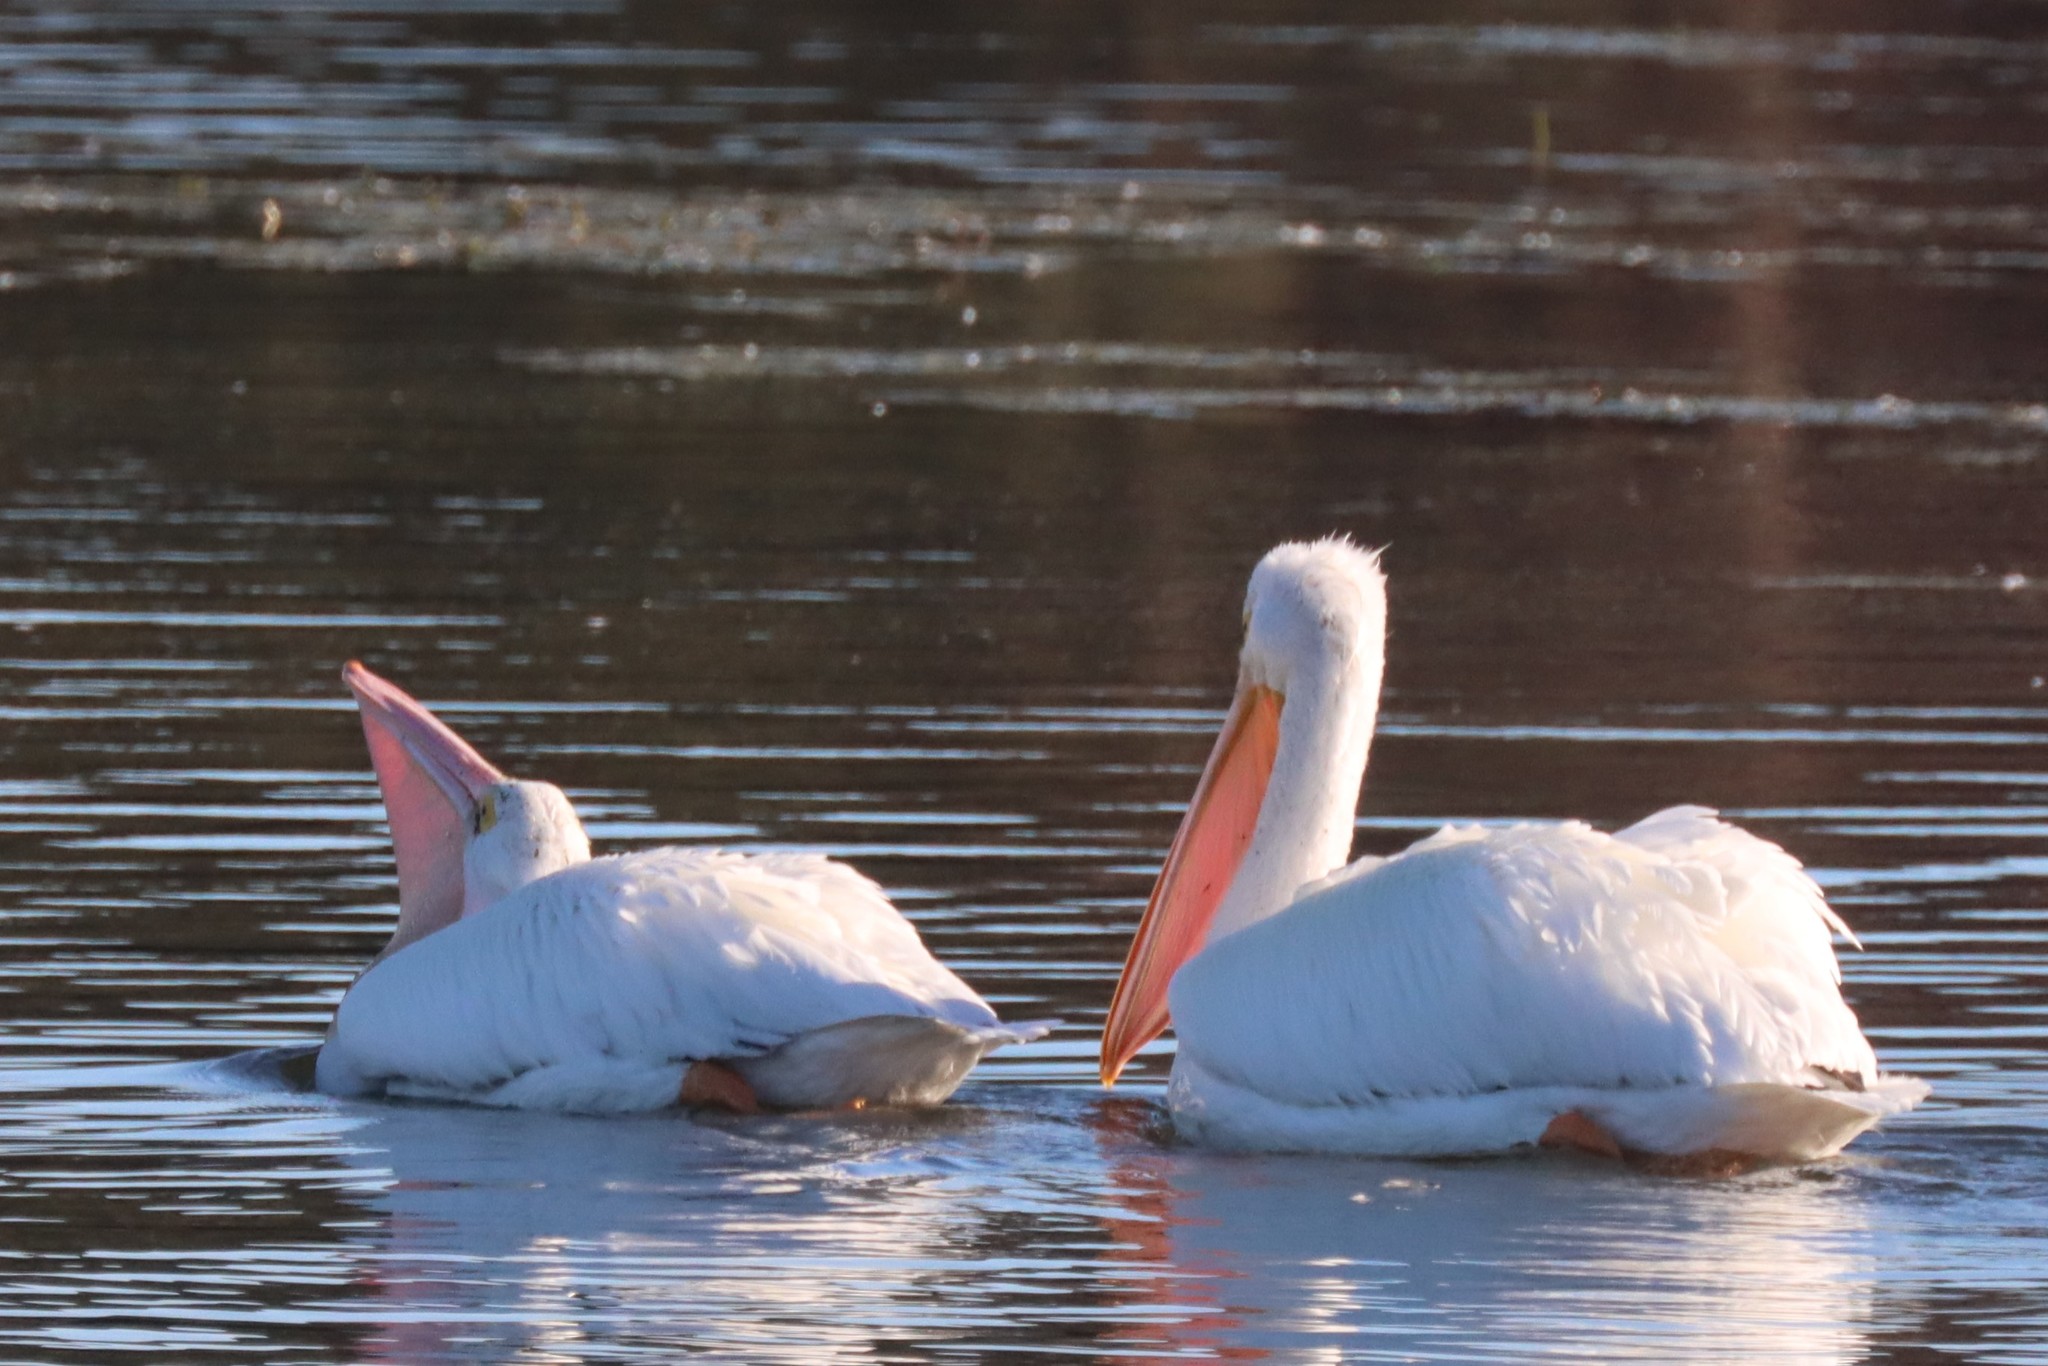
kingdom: Animalia
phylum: Chordata
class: Aves
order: Pelecaniformes
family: Pelecanidae
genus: Pelecanus
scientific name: Pelecanus erythrorhynchos
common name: American white pelican
